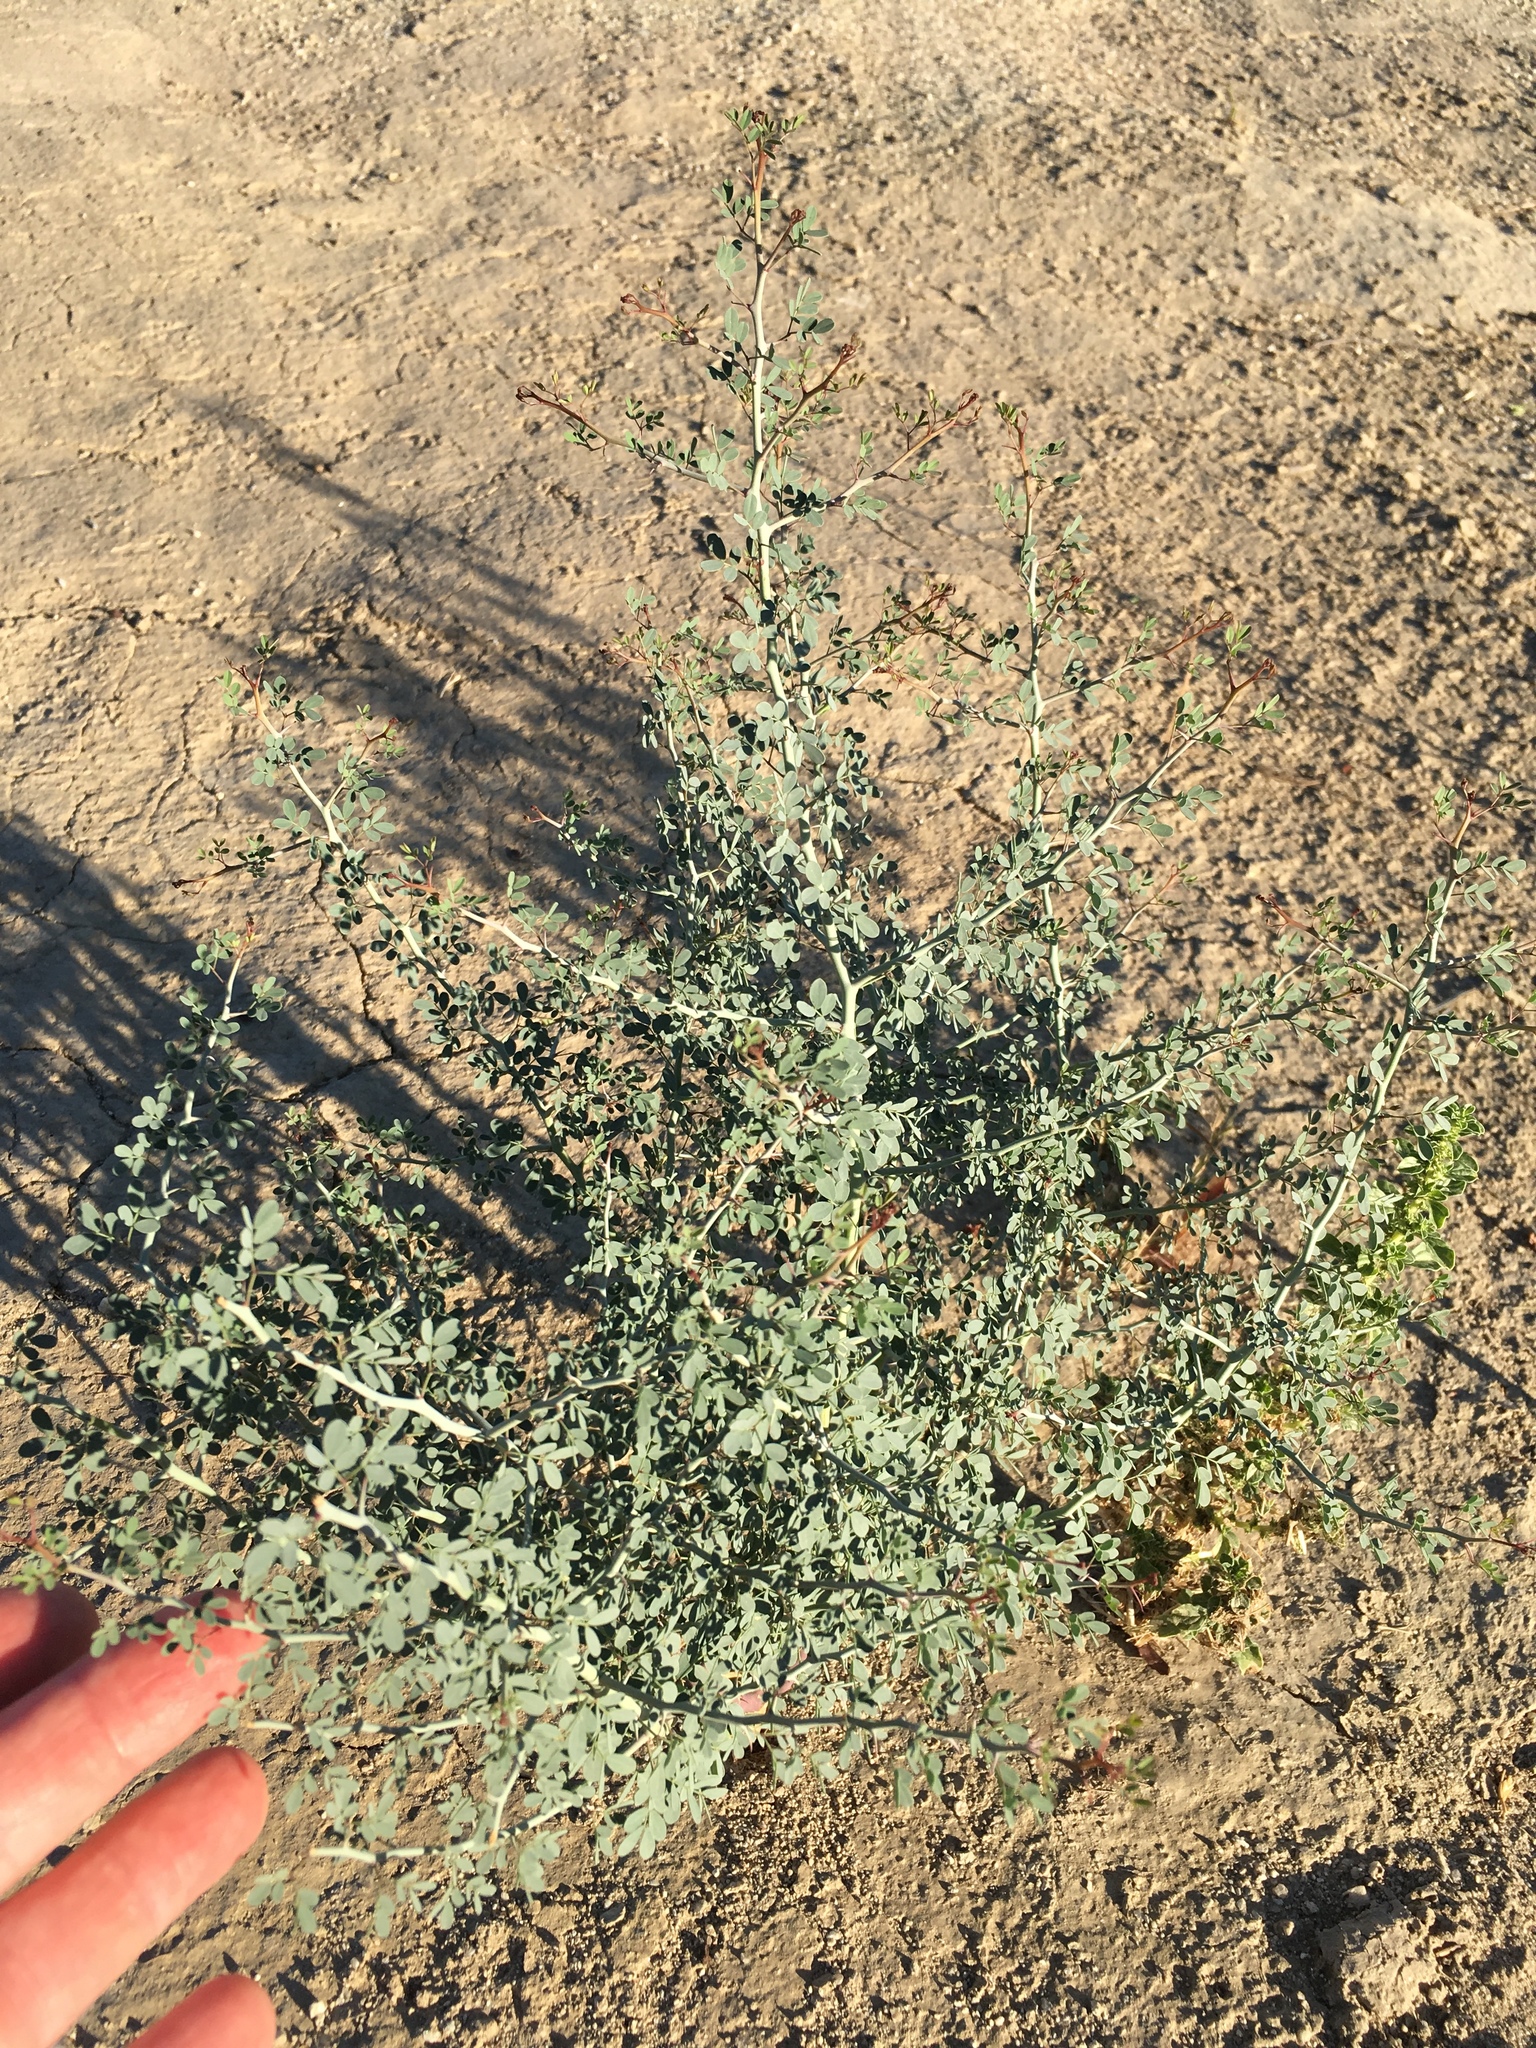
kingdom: Plantae
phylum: Tracheophyta
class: Magnoliopsida
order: Fabales
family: Fabaceae
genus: Parkinsonia
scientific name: Parkinsonia florida
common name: Blue paloverde
